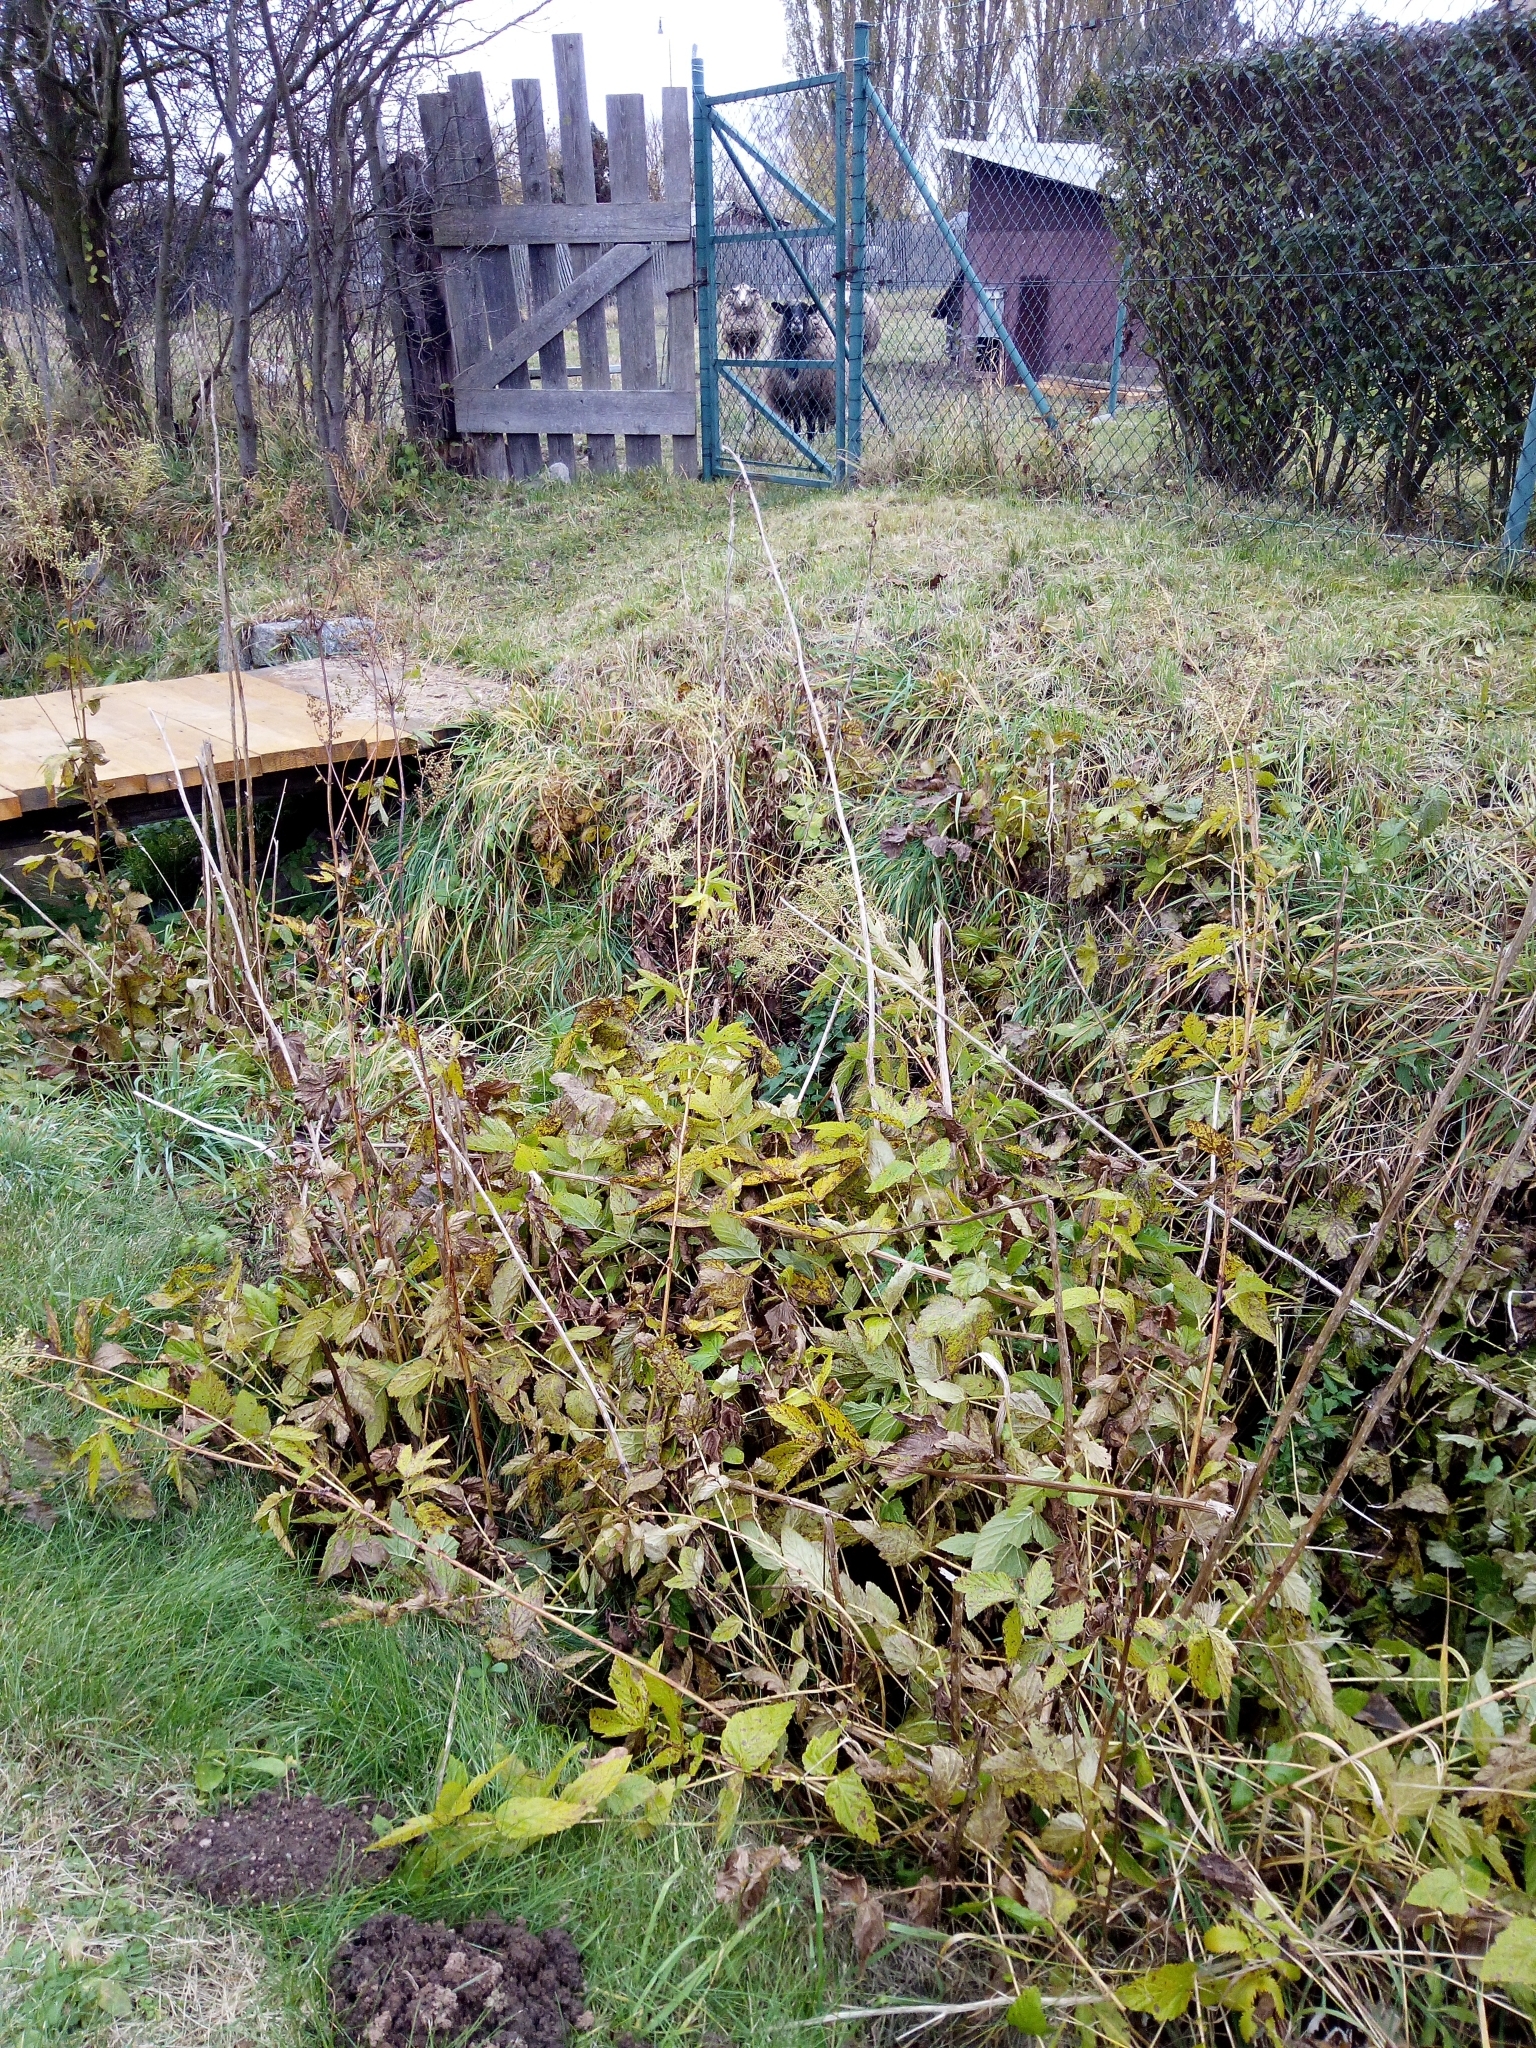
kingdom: Plantae
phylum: Tracheophyta
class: Magnoliopsida
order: Rosales
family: Rosaceae
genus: Filipendula
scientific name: Filipendula ulmaria
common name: Meadowsweet
